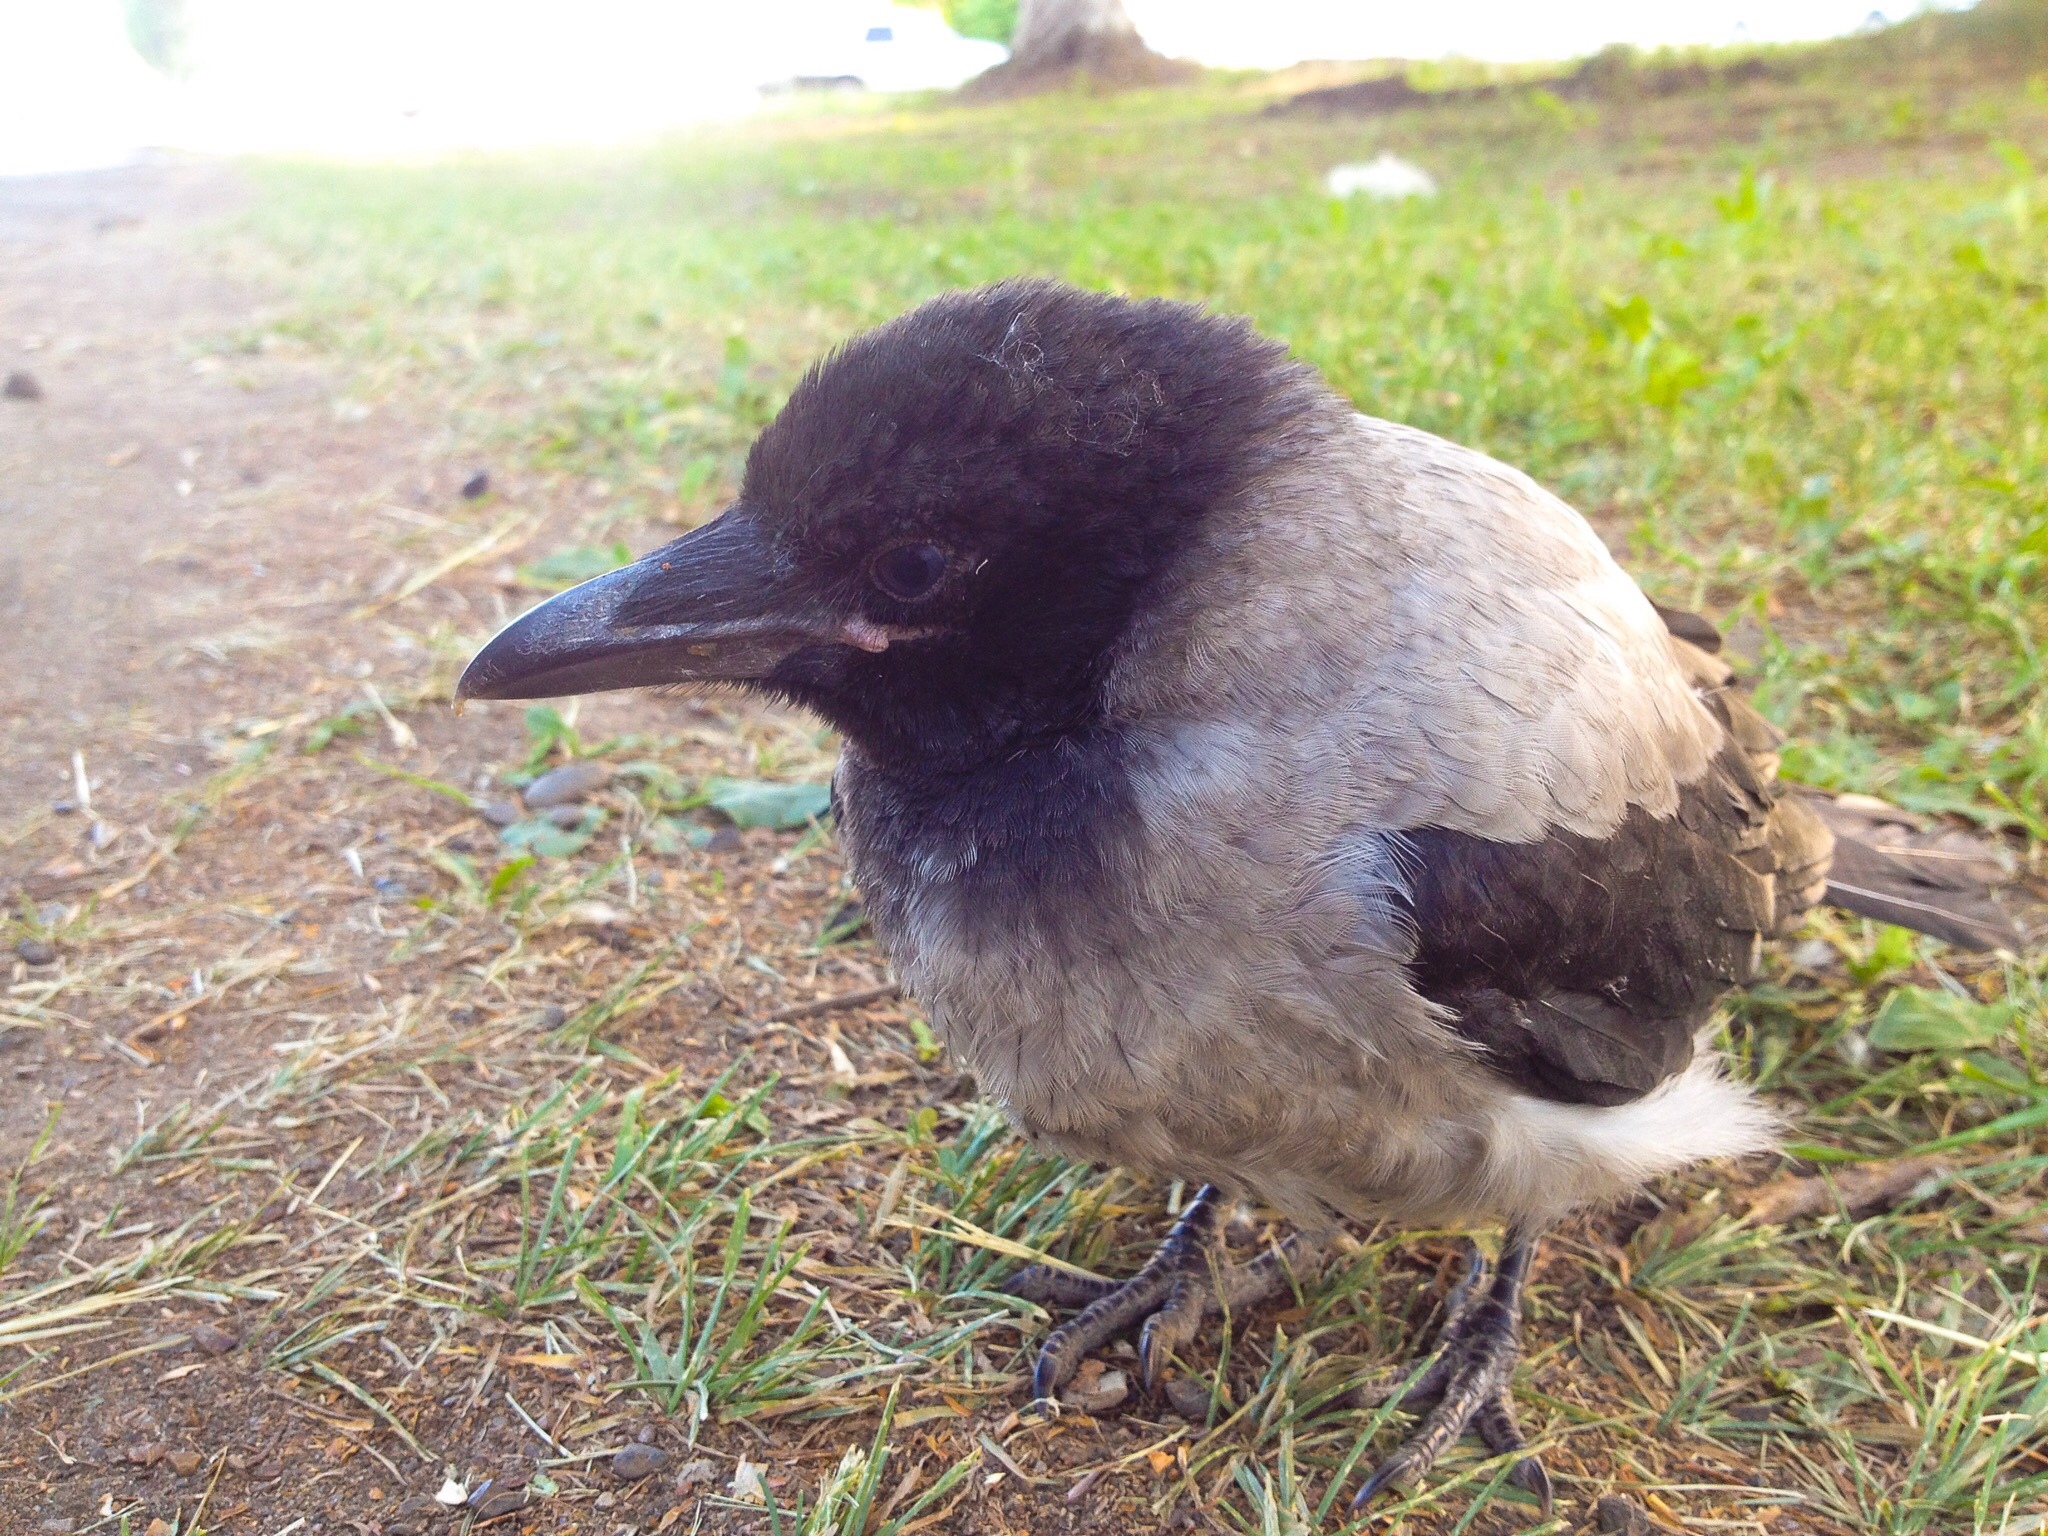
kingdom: Animalia
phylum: Chordata
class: Aves
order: Passeriformes
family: Corvidae
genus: Corvus
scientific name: Corvus cornix
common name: Hooded crow
